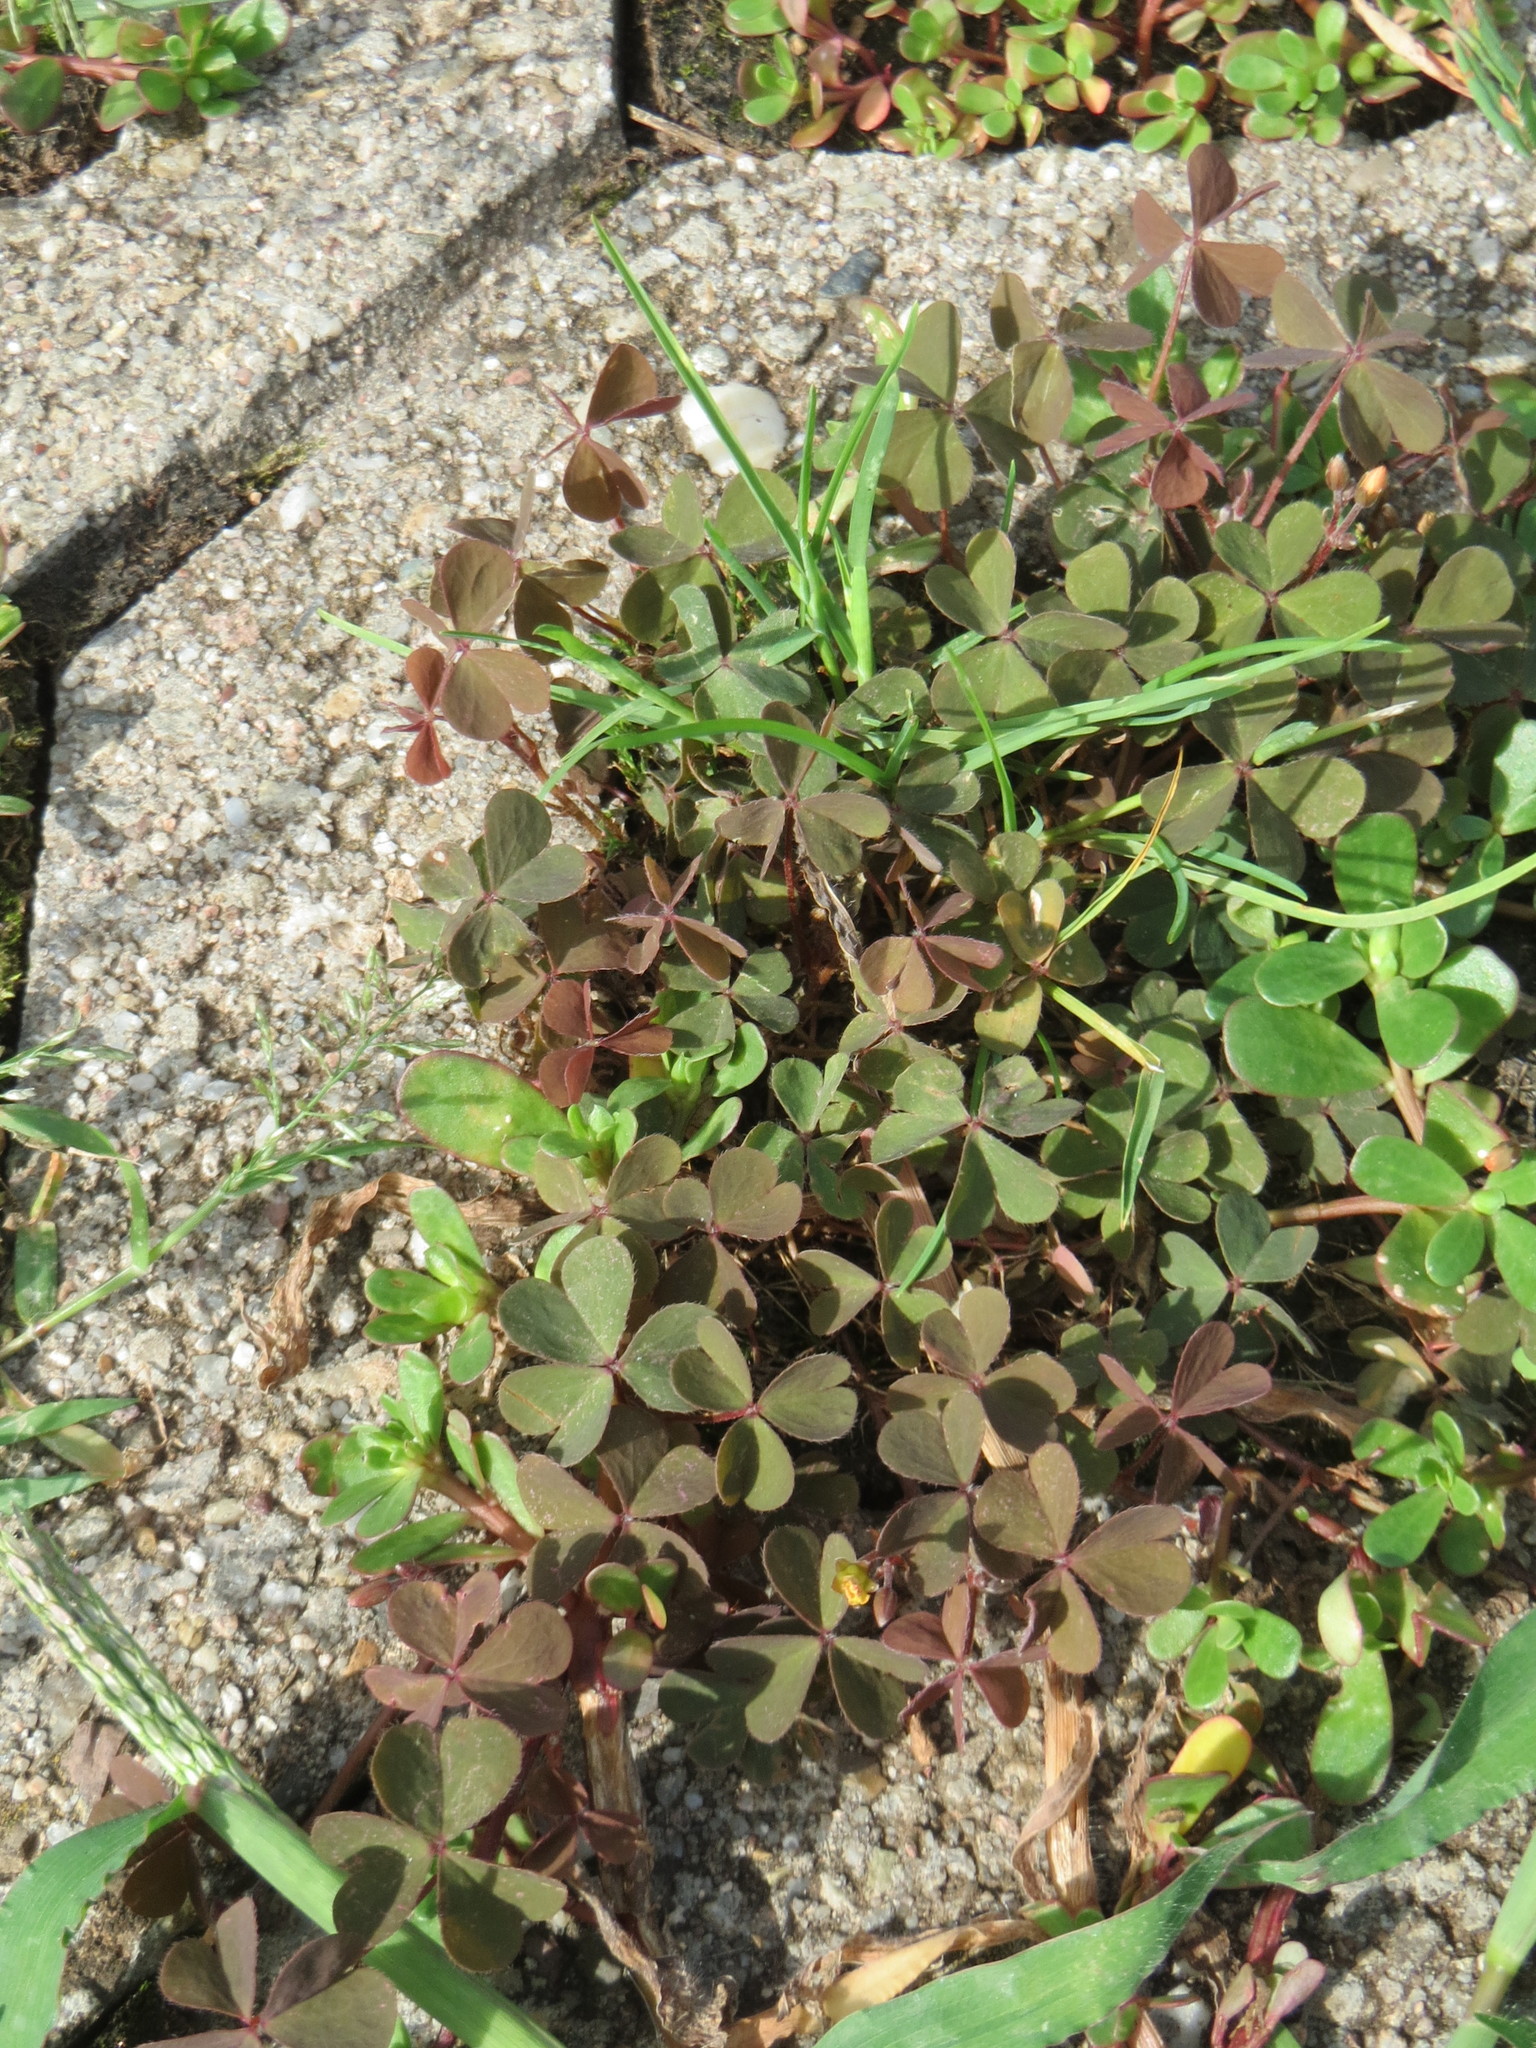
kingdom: Plantae
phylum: Tracheophyta
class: Magnoliopsida
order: Oxalidales
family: Oxalidaceae
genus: Oxalis
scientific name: Oxalis corniculata
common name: Procumbent yellow-sorrel
